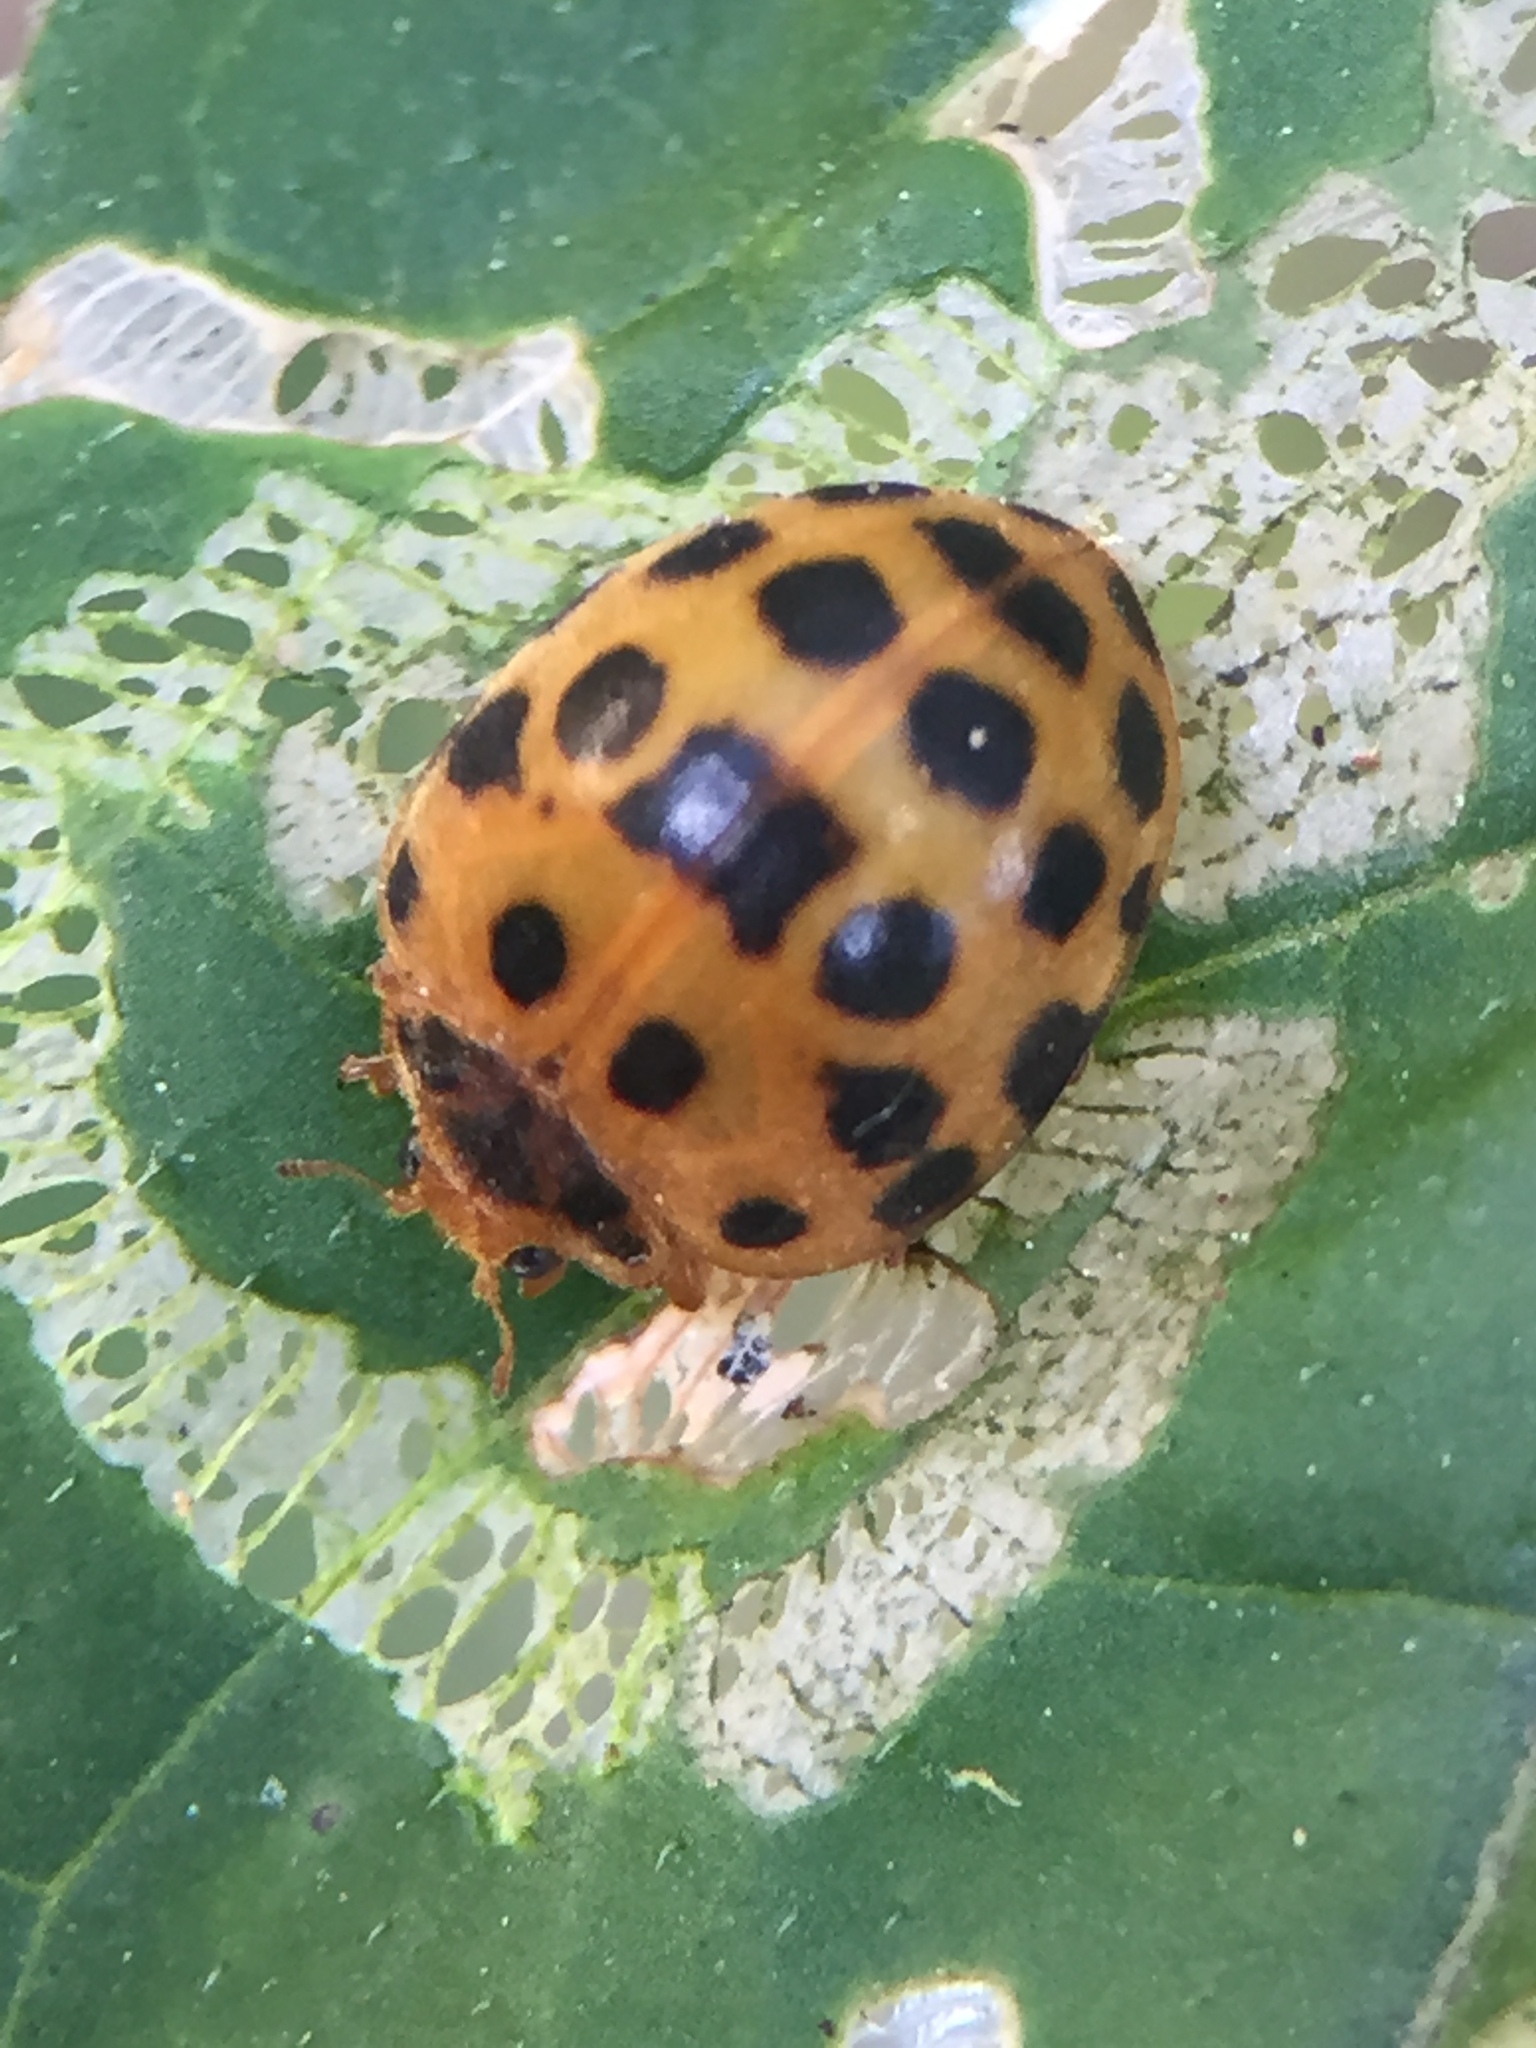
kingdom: Animalia
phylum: Arthropoda
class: Insecta
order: Coleoptera
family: Coccinellidae
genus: Henosepilachna
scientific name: Henosepilachna vigintioctopunctata
